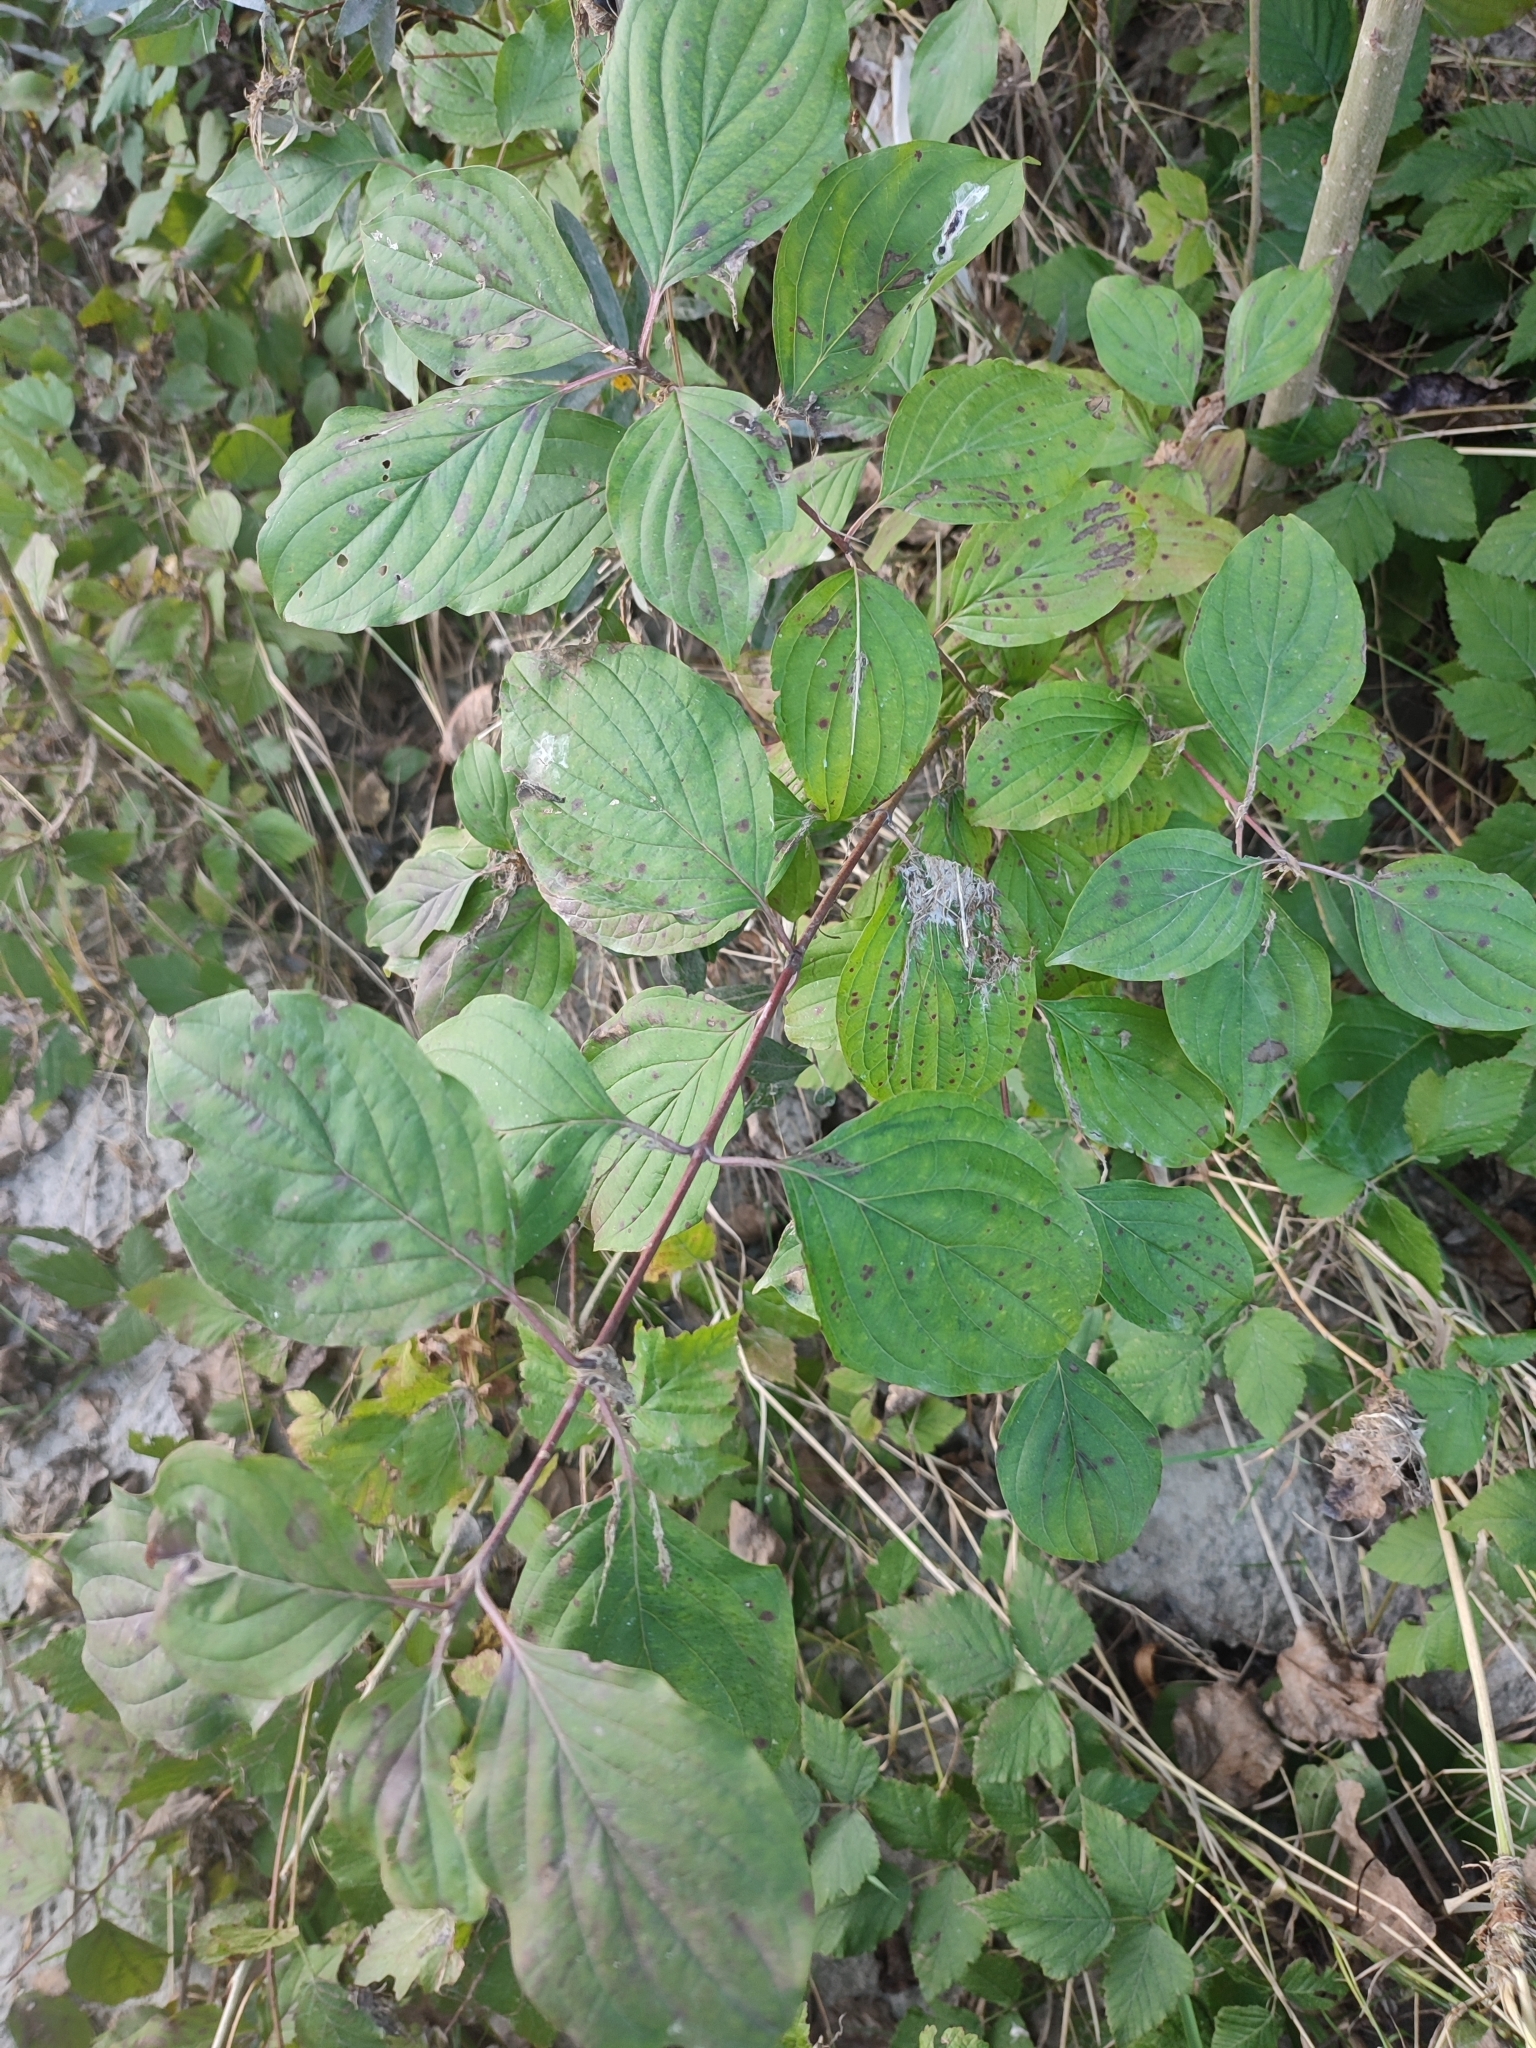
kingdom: Plantae
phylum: Tracheophyta
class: Magnoliopsida
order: Cornales
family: Cornaceae
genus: Cornus
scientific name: Cornus sanguinea
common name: Dogwood
